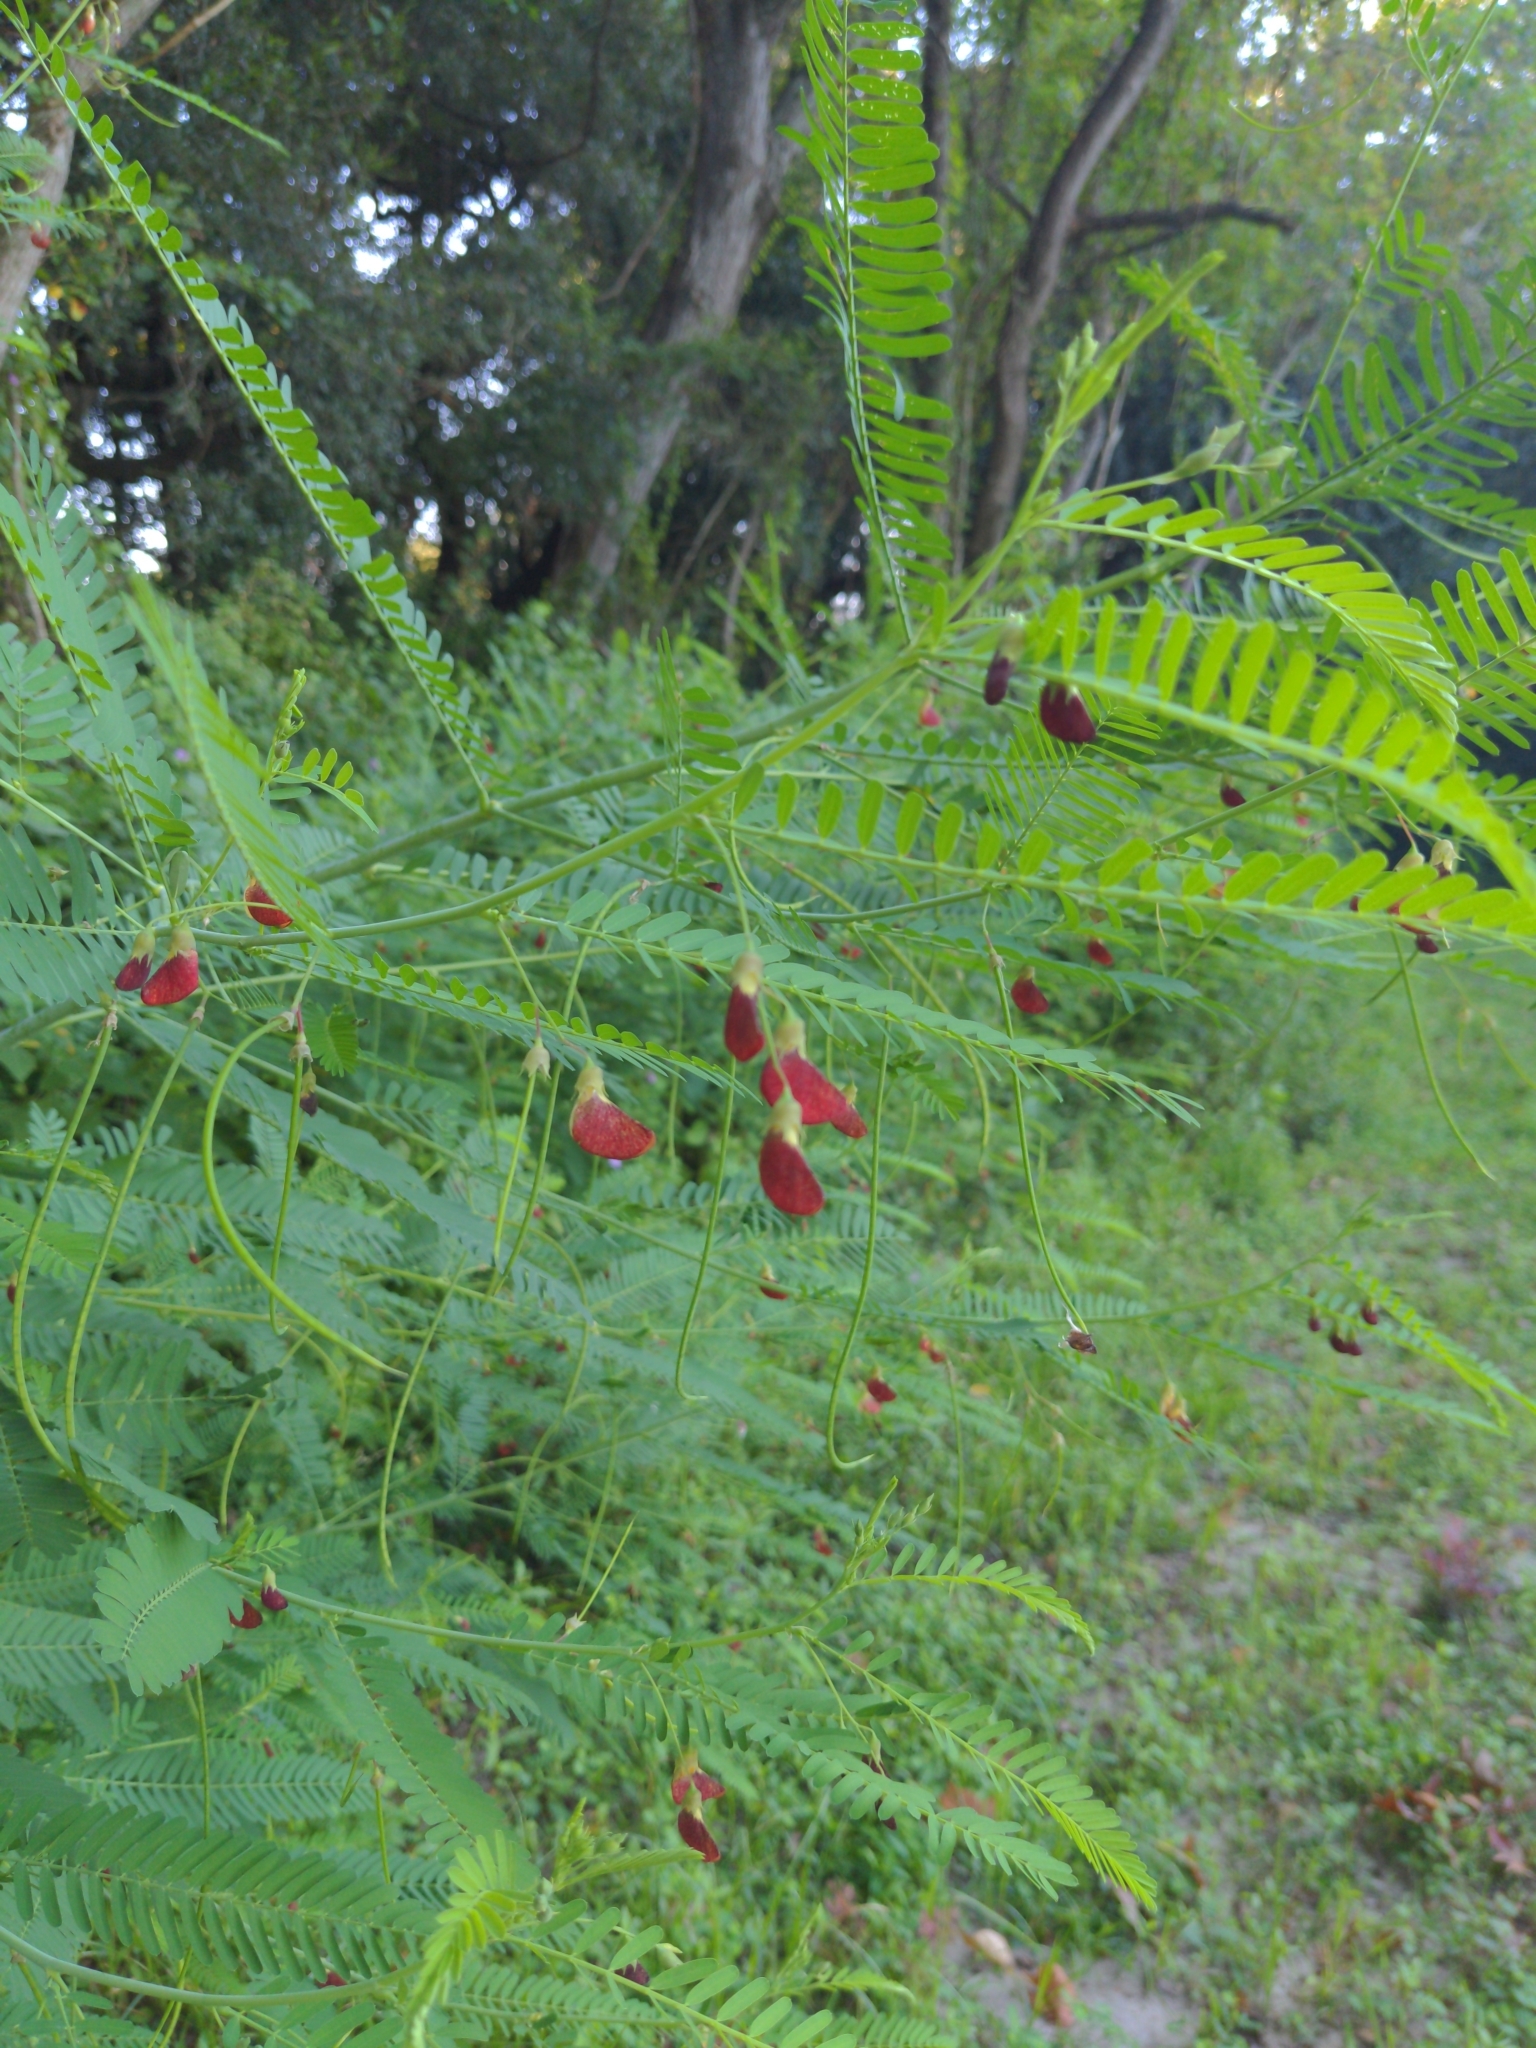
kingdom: Plantae
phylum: Tracheophyta
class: Magnoliopsida
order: Fabales
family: Fabaceae
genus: Sesbania
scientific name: Sesbania herbacea
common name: Bigpod sesbania
